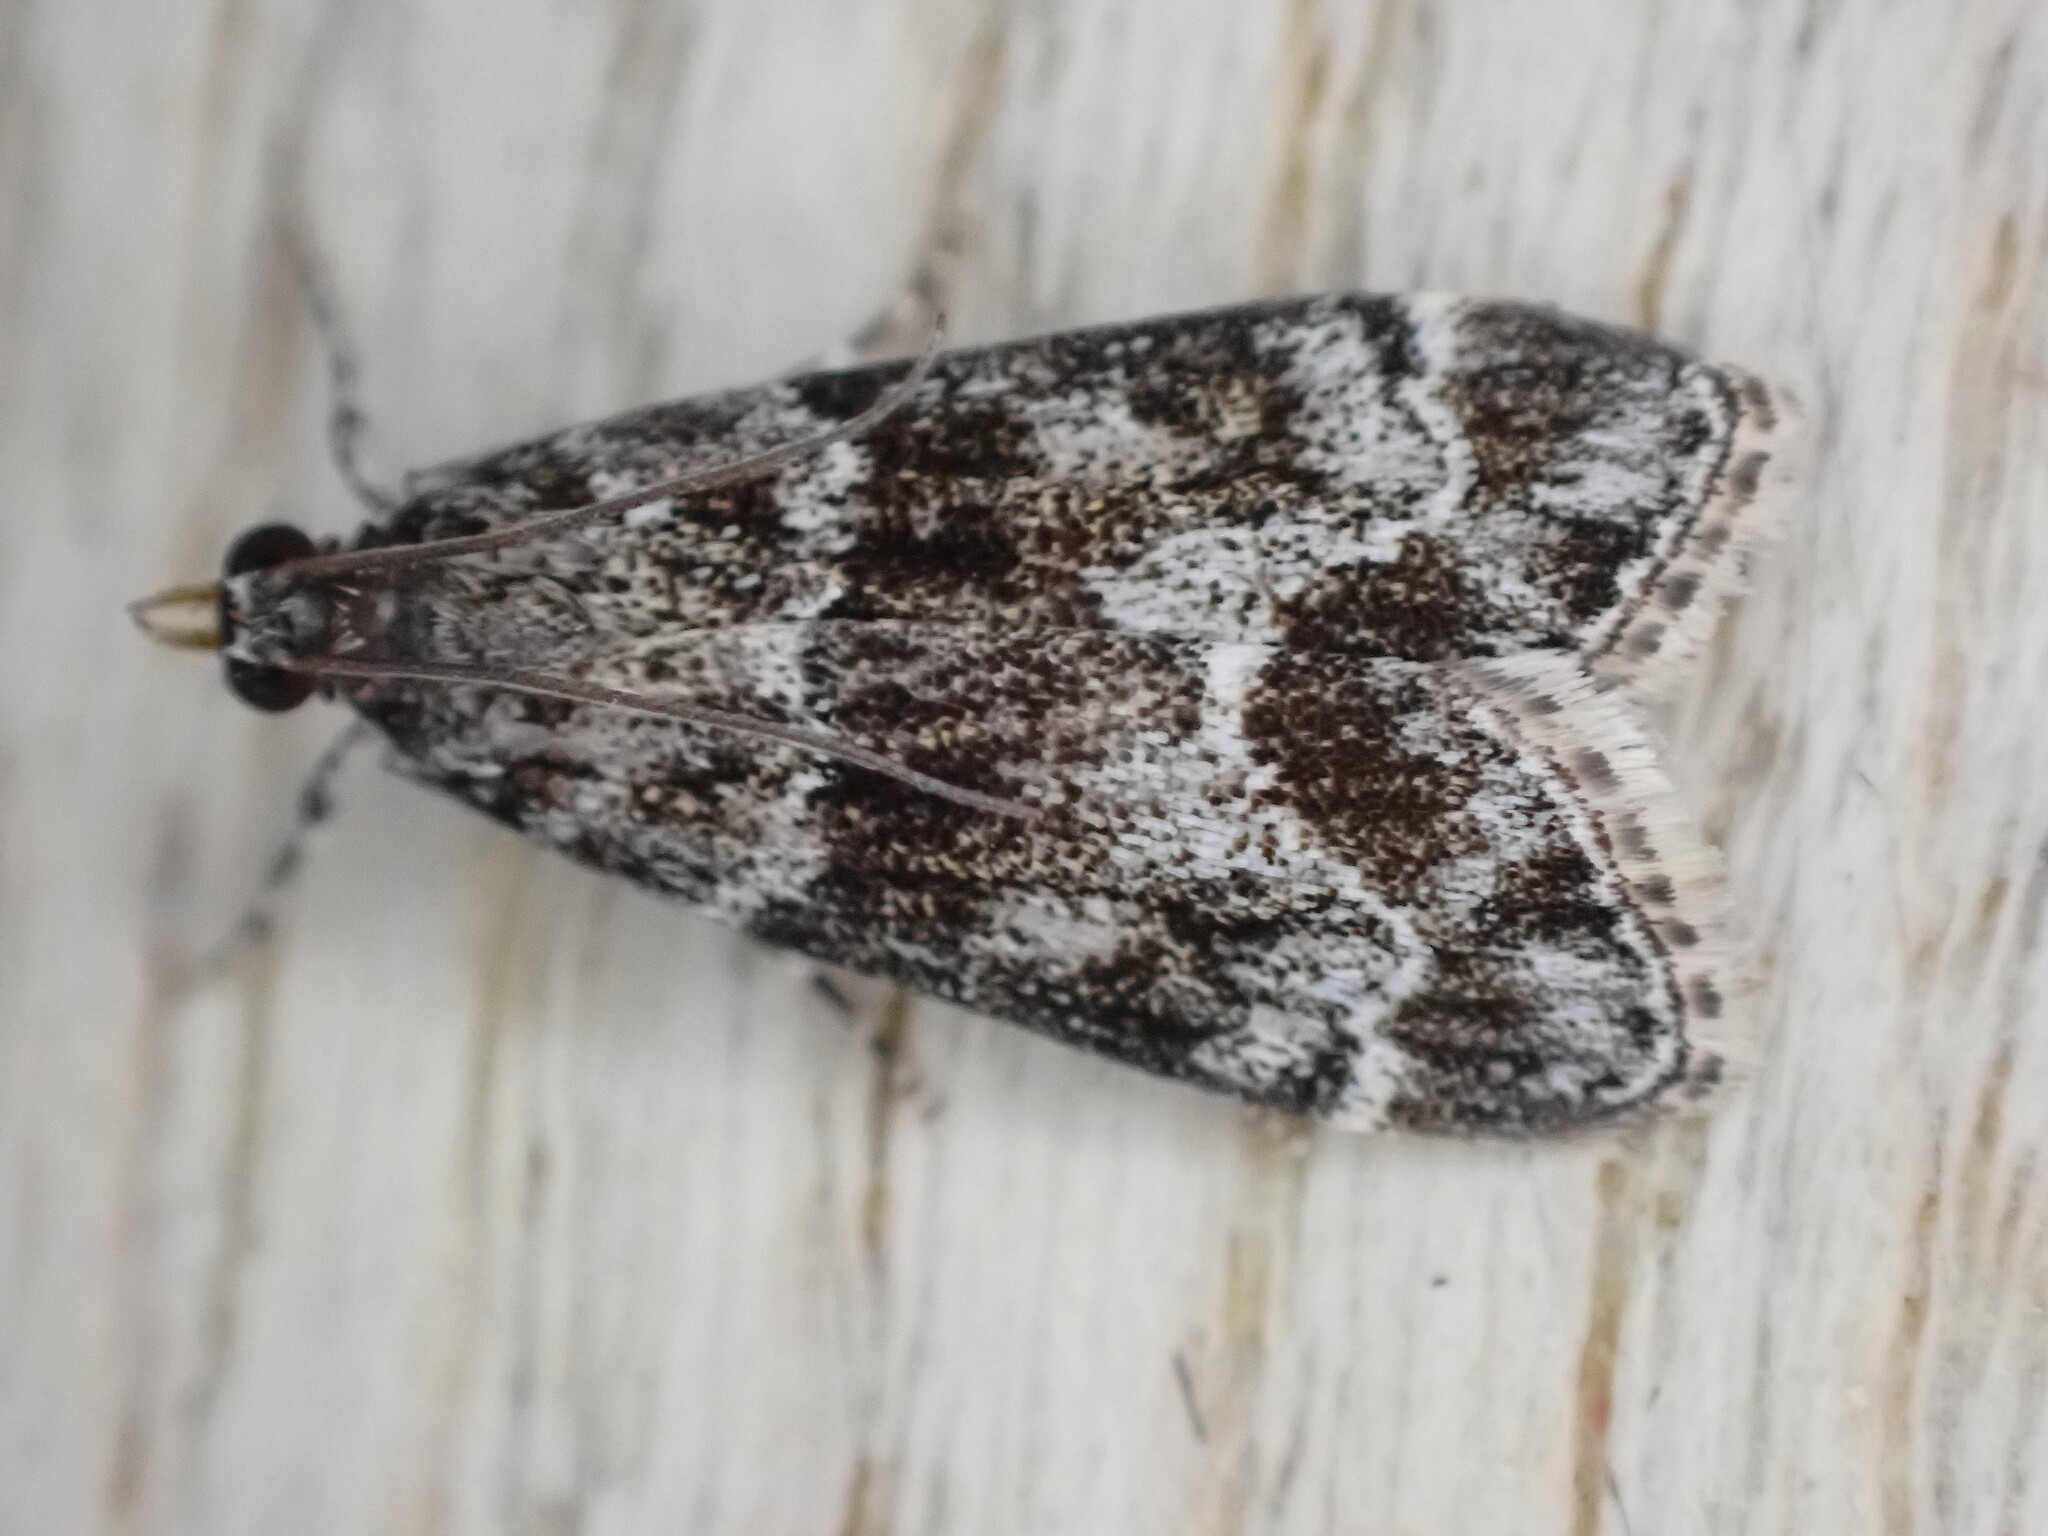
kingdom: Animalia
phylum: Arthropoda
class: Insecta
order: Lepidoptera
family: Crambidae
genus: Eudonia
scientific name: Eudonia mercurella
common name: Small grey
